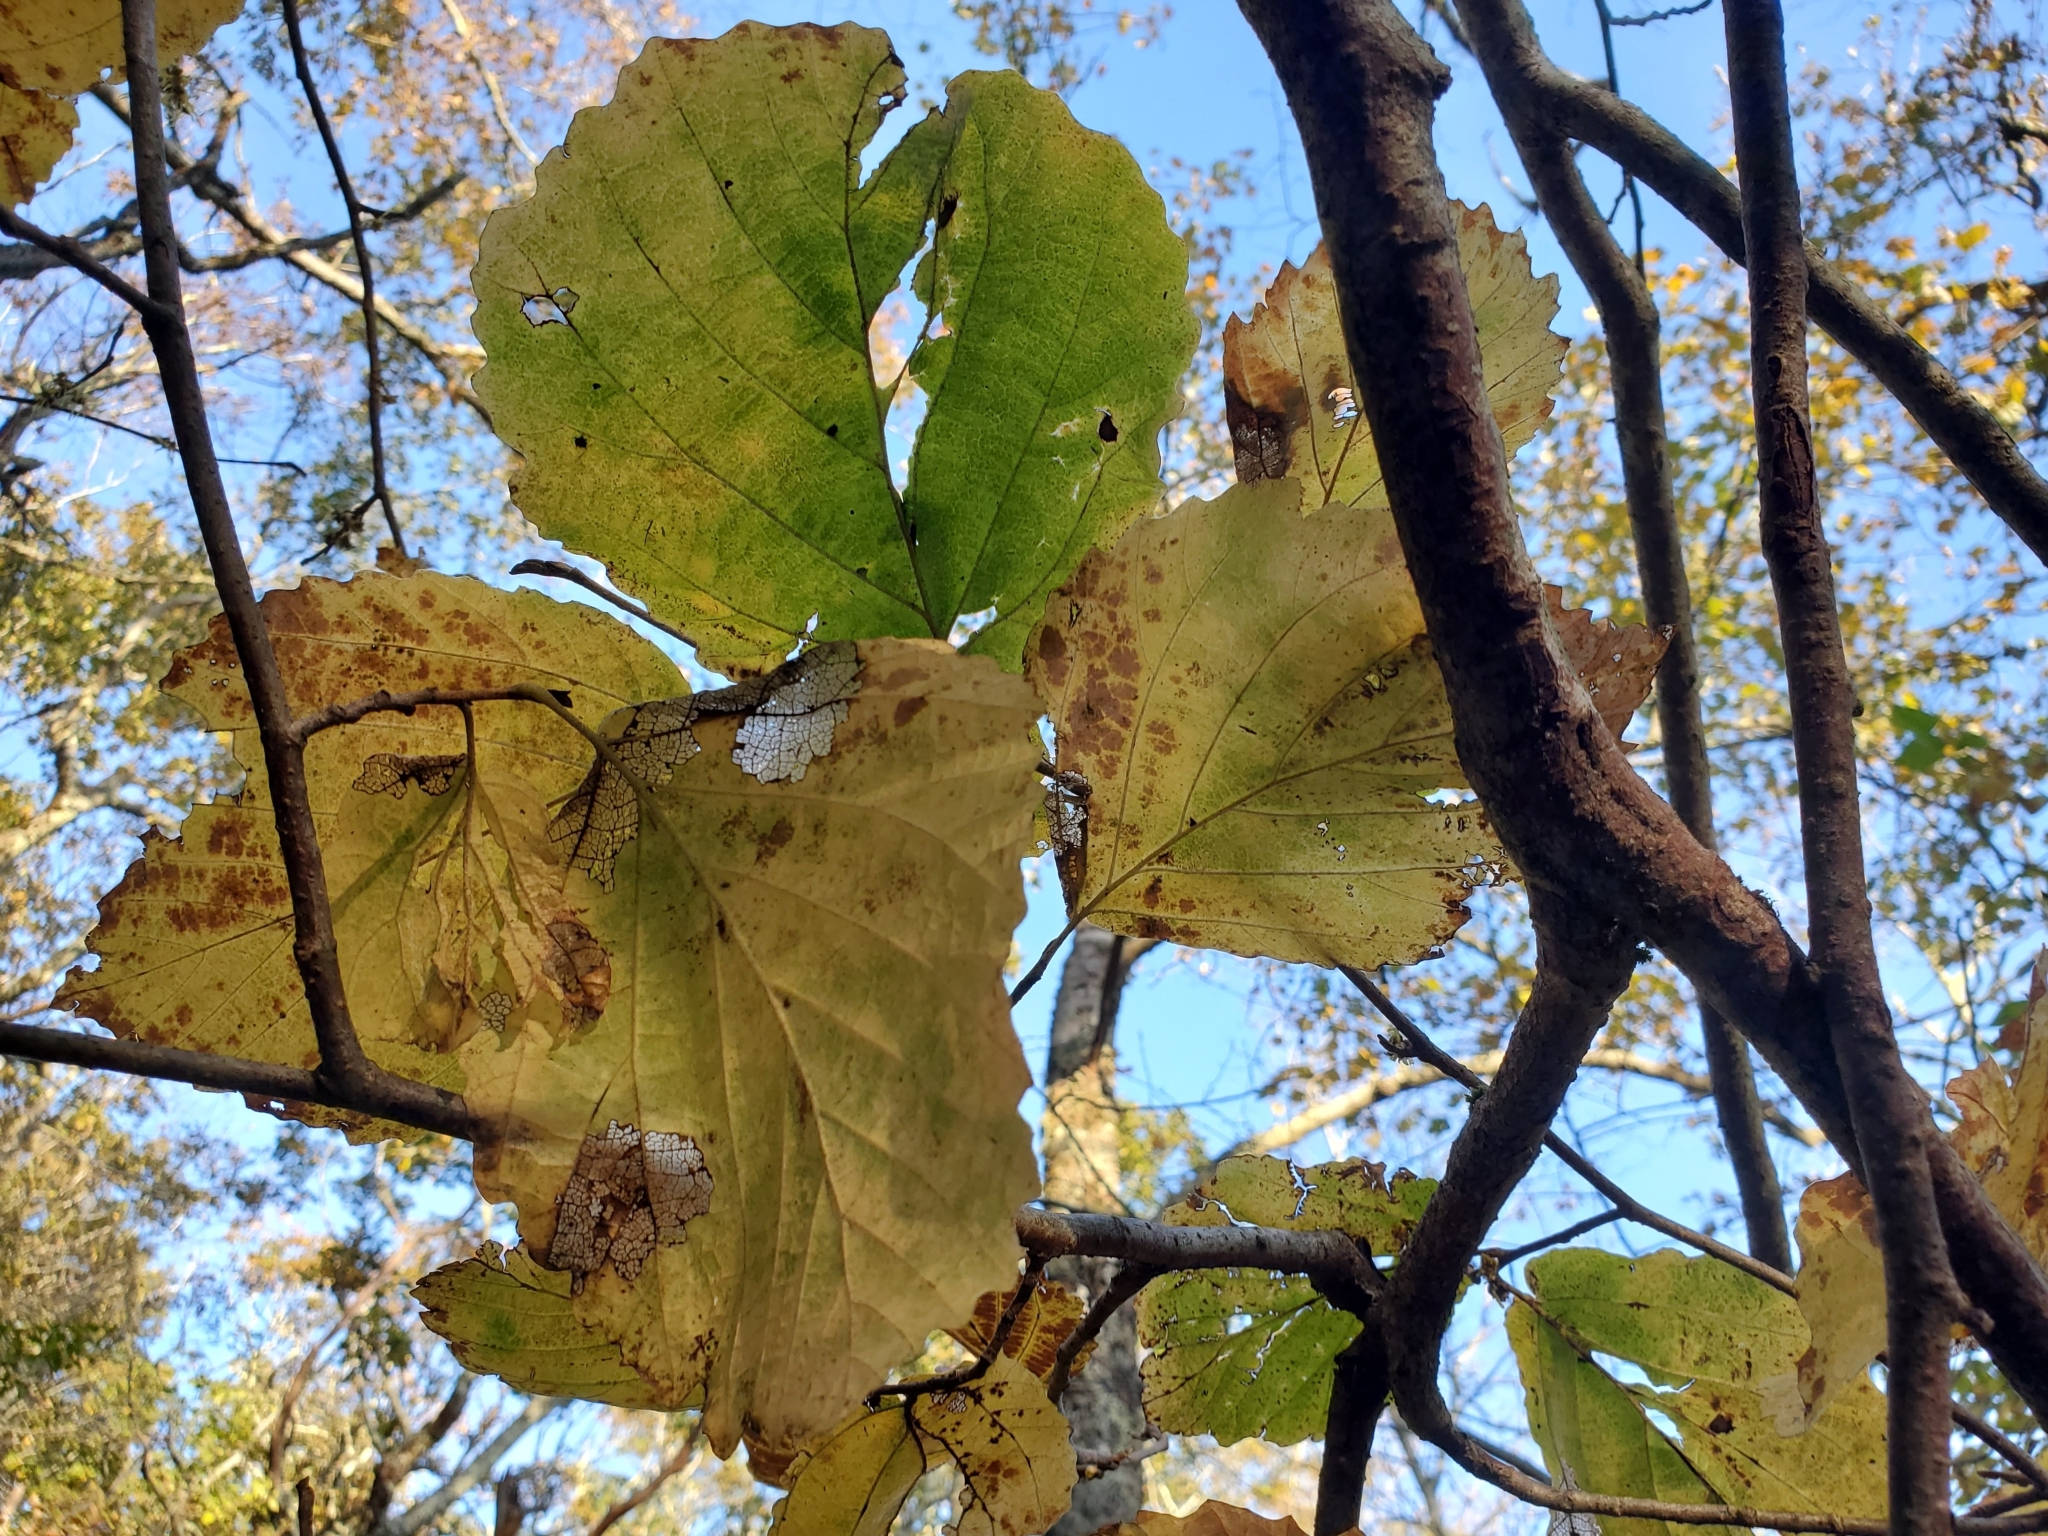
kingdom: Plantae
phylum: Tracheophyta
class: Magnoliopsida
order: Saxifragales
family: Hamamelidaceae
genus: Hamamelis
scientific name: Hamamelis virginiana
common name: Witch-hazel
